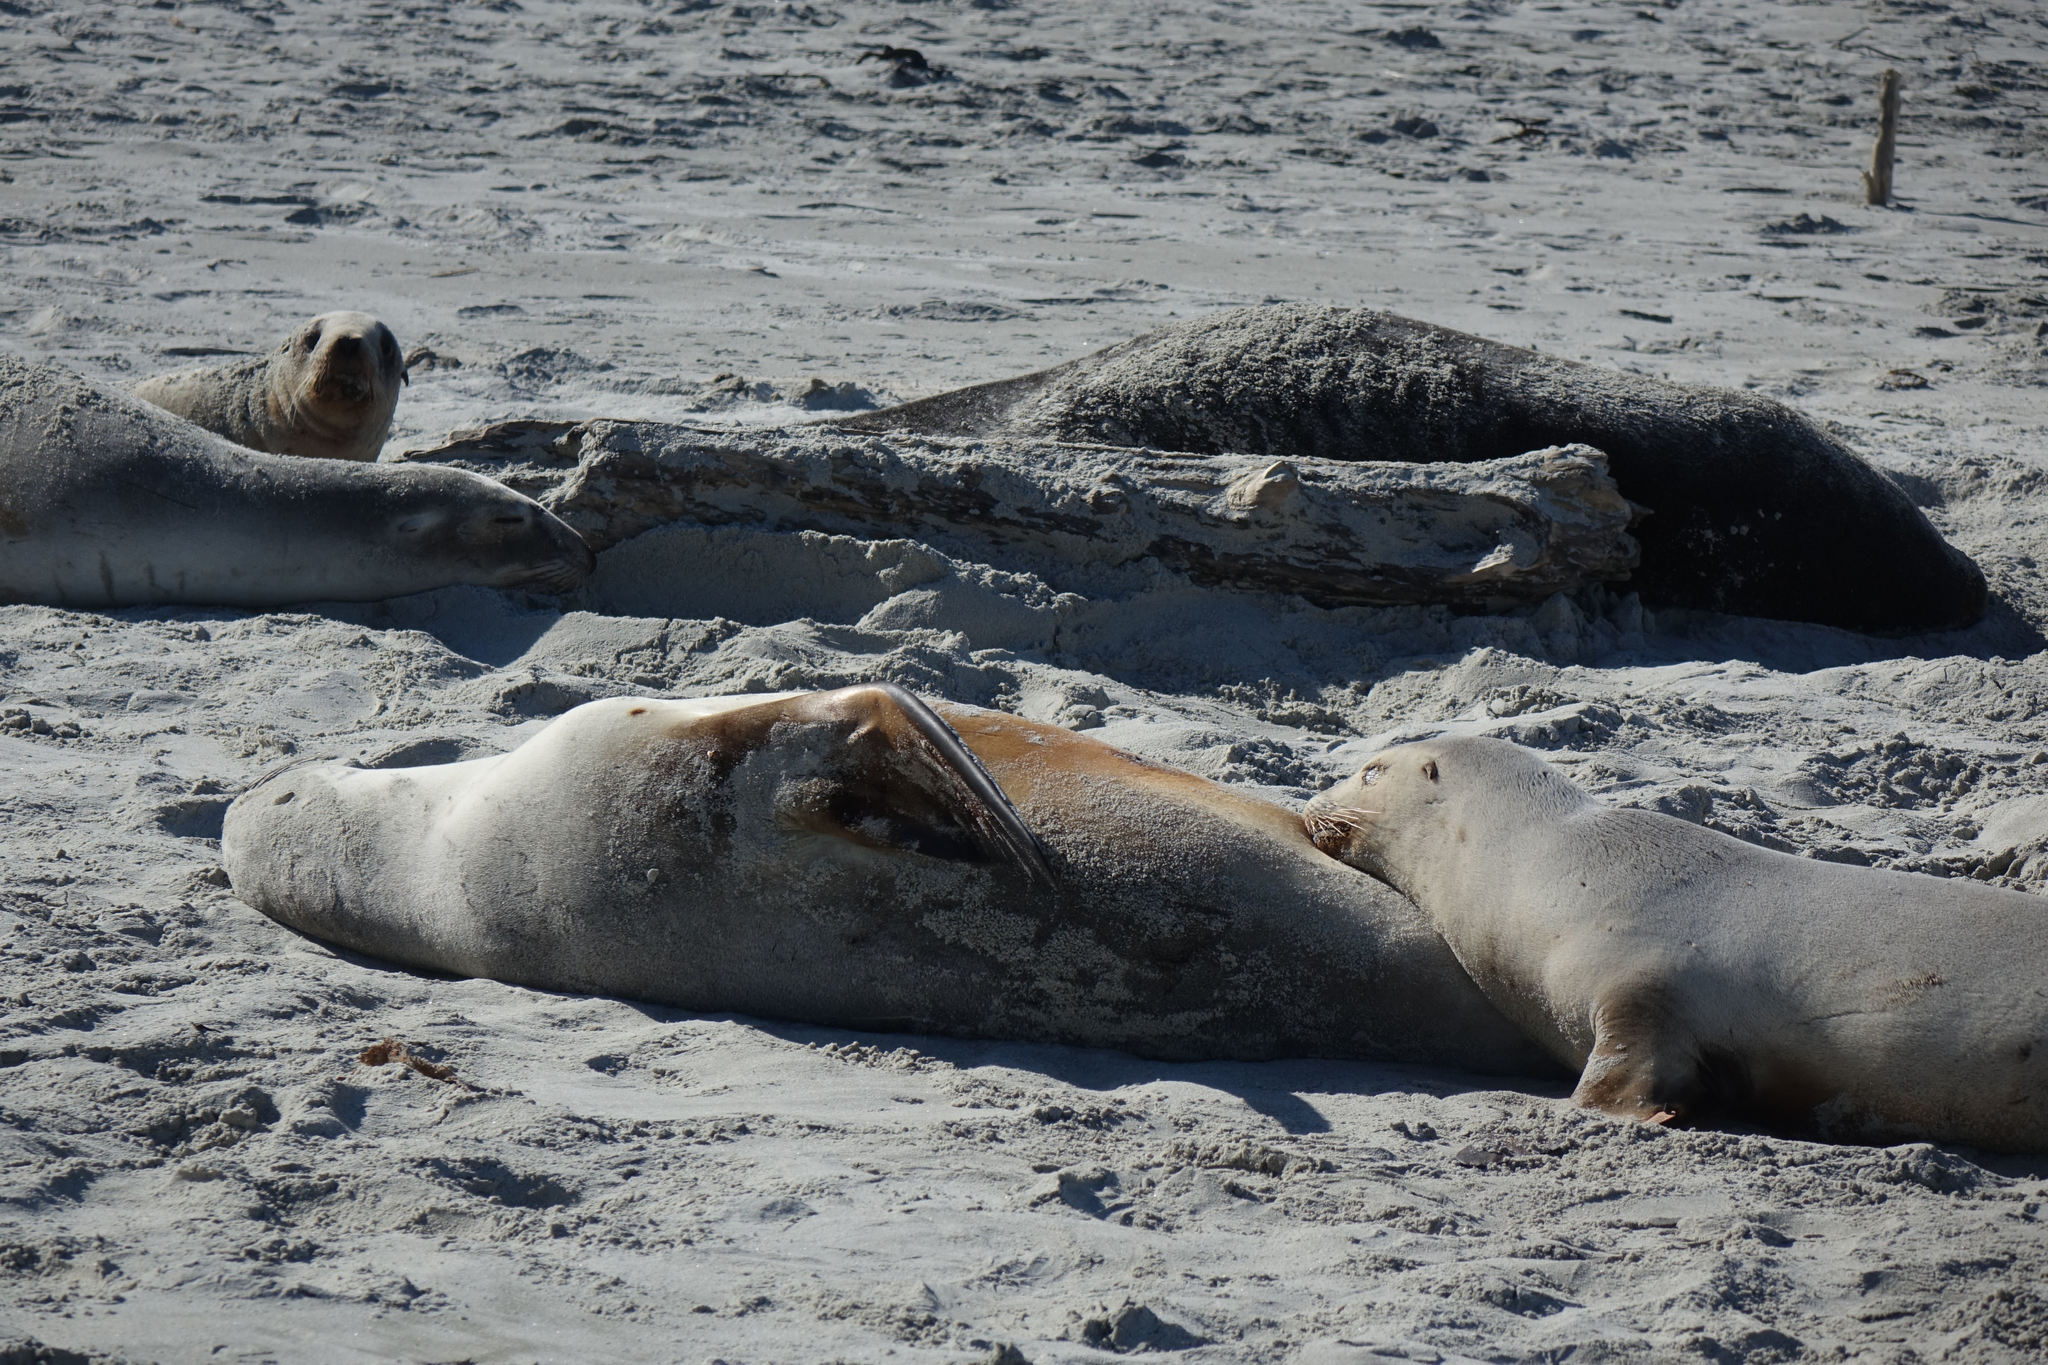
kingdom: Animalia
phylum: Chordata
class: Mammalia
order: Carnivora
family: Otariidae
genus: Phocarctos
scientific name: Phocarctos hookeri
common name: New zealand sea lion
